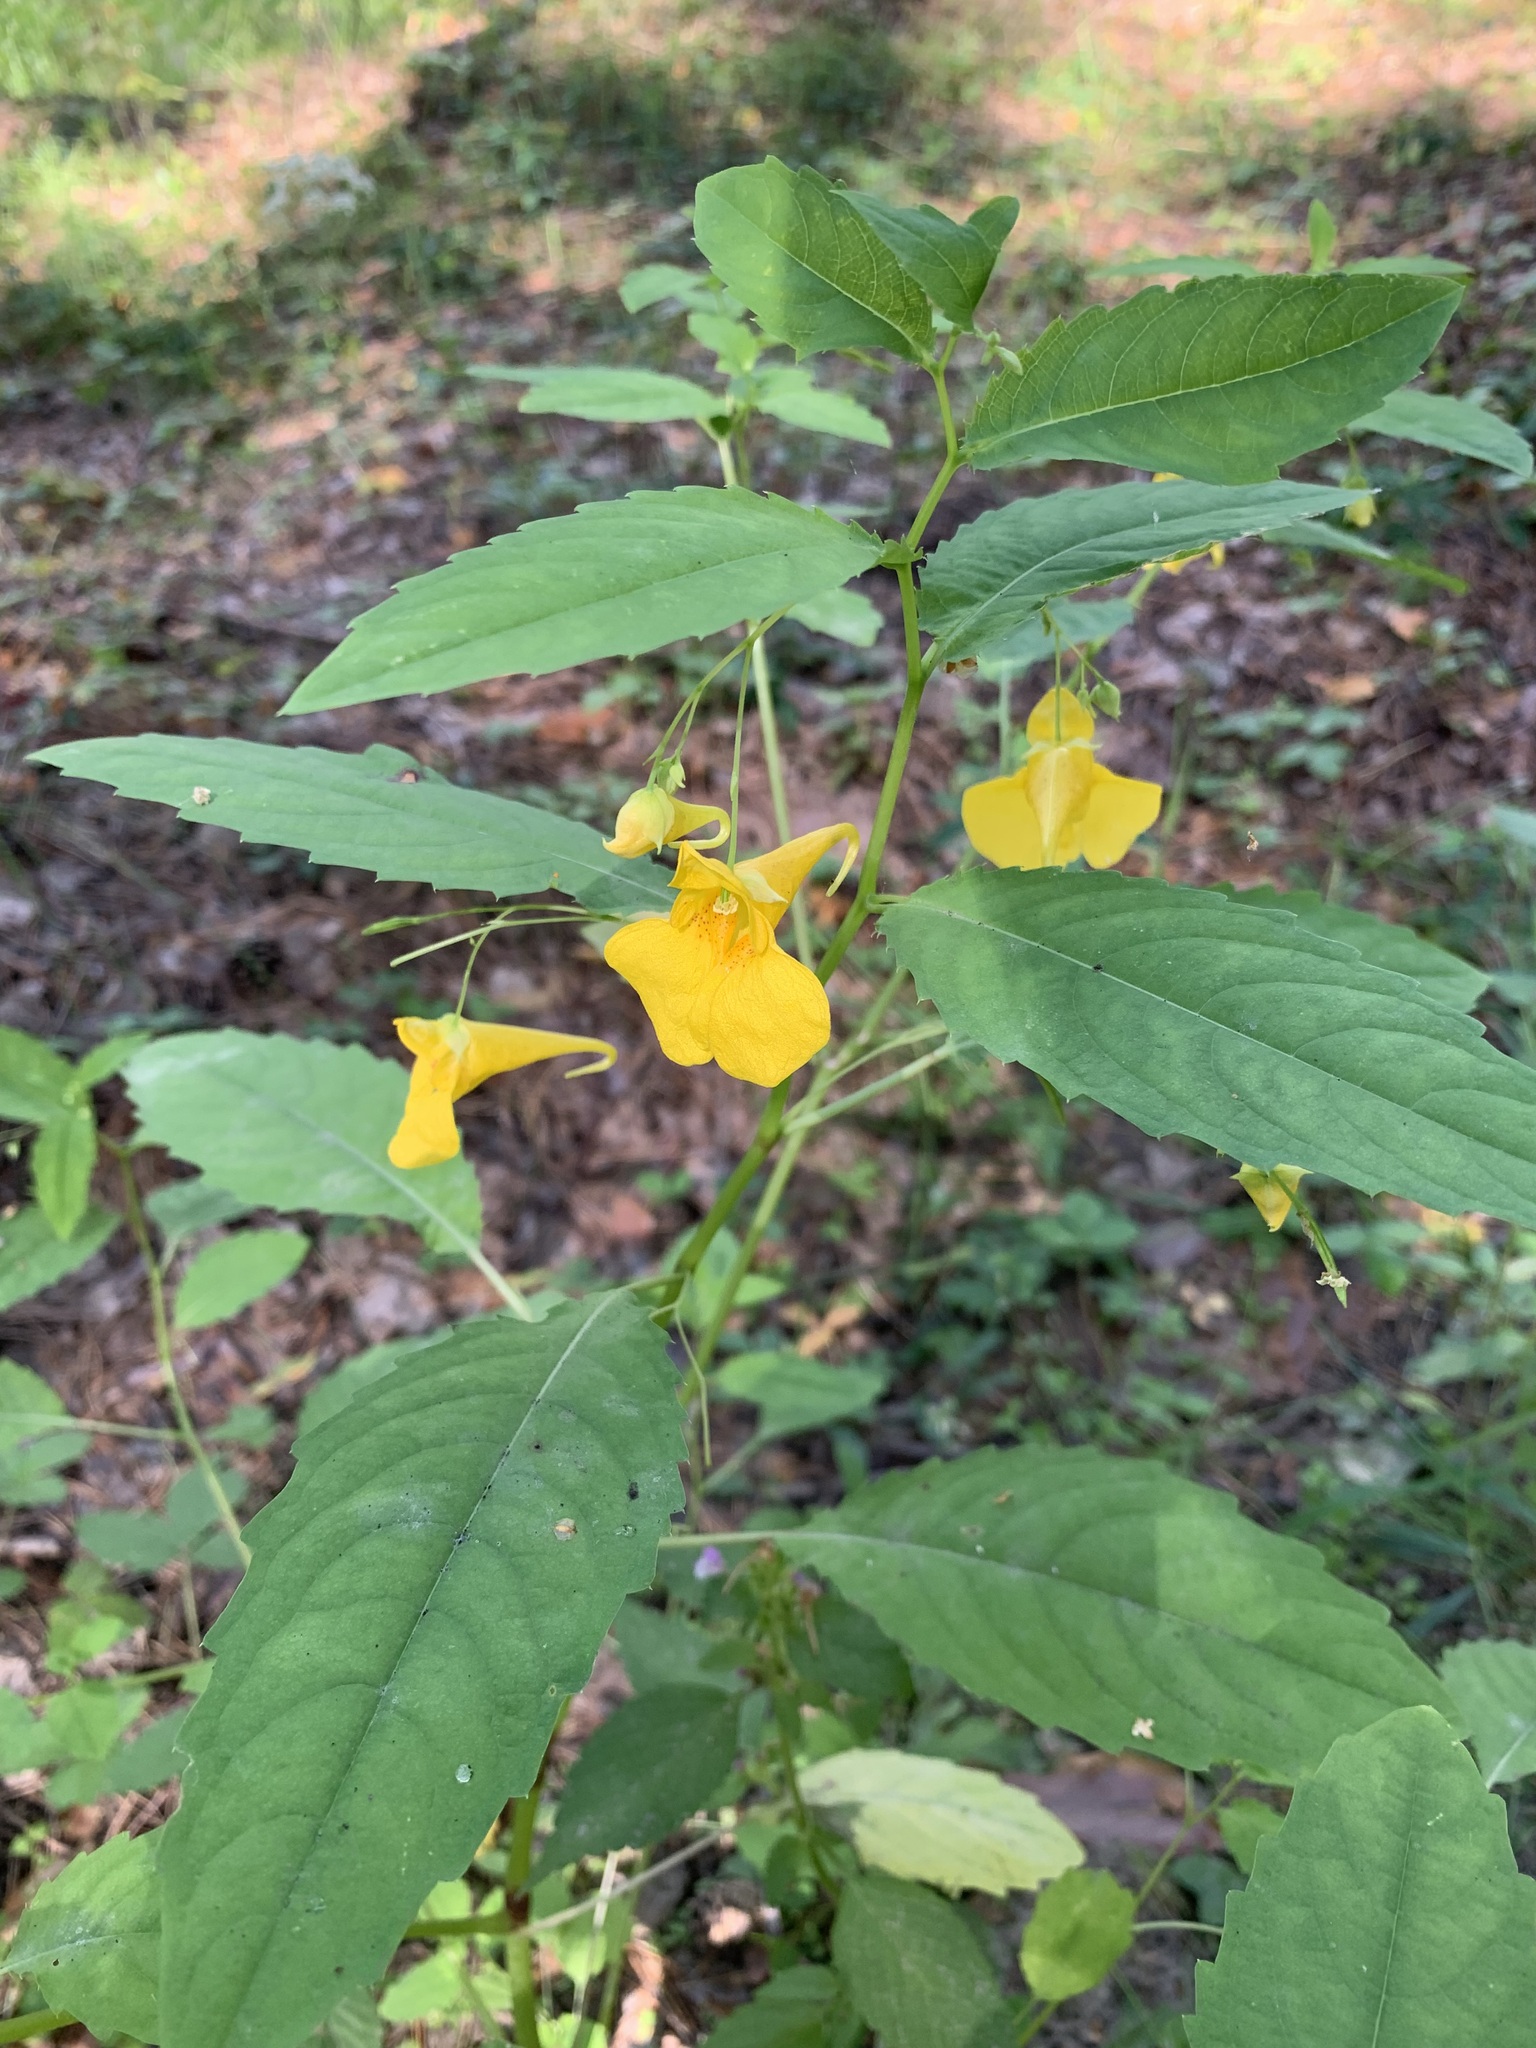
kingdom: Plantae
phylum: Tracheophyta
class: Magnoliopsida
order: Ericales
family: Balsaminaceae
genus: Impatiens
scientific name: Impatiens noli-tangere
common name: Touch-me-not balsam
